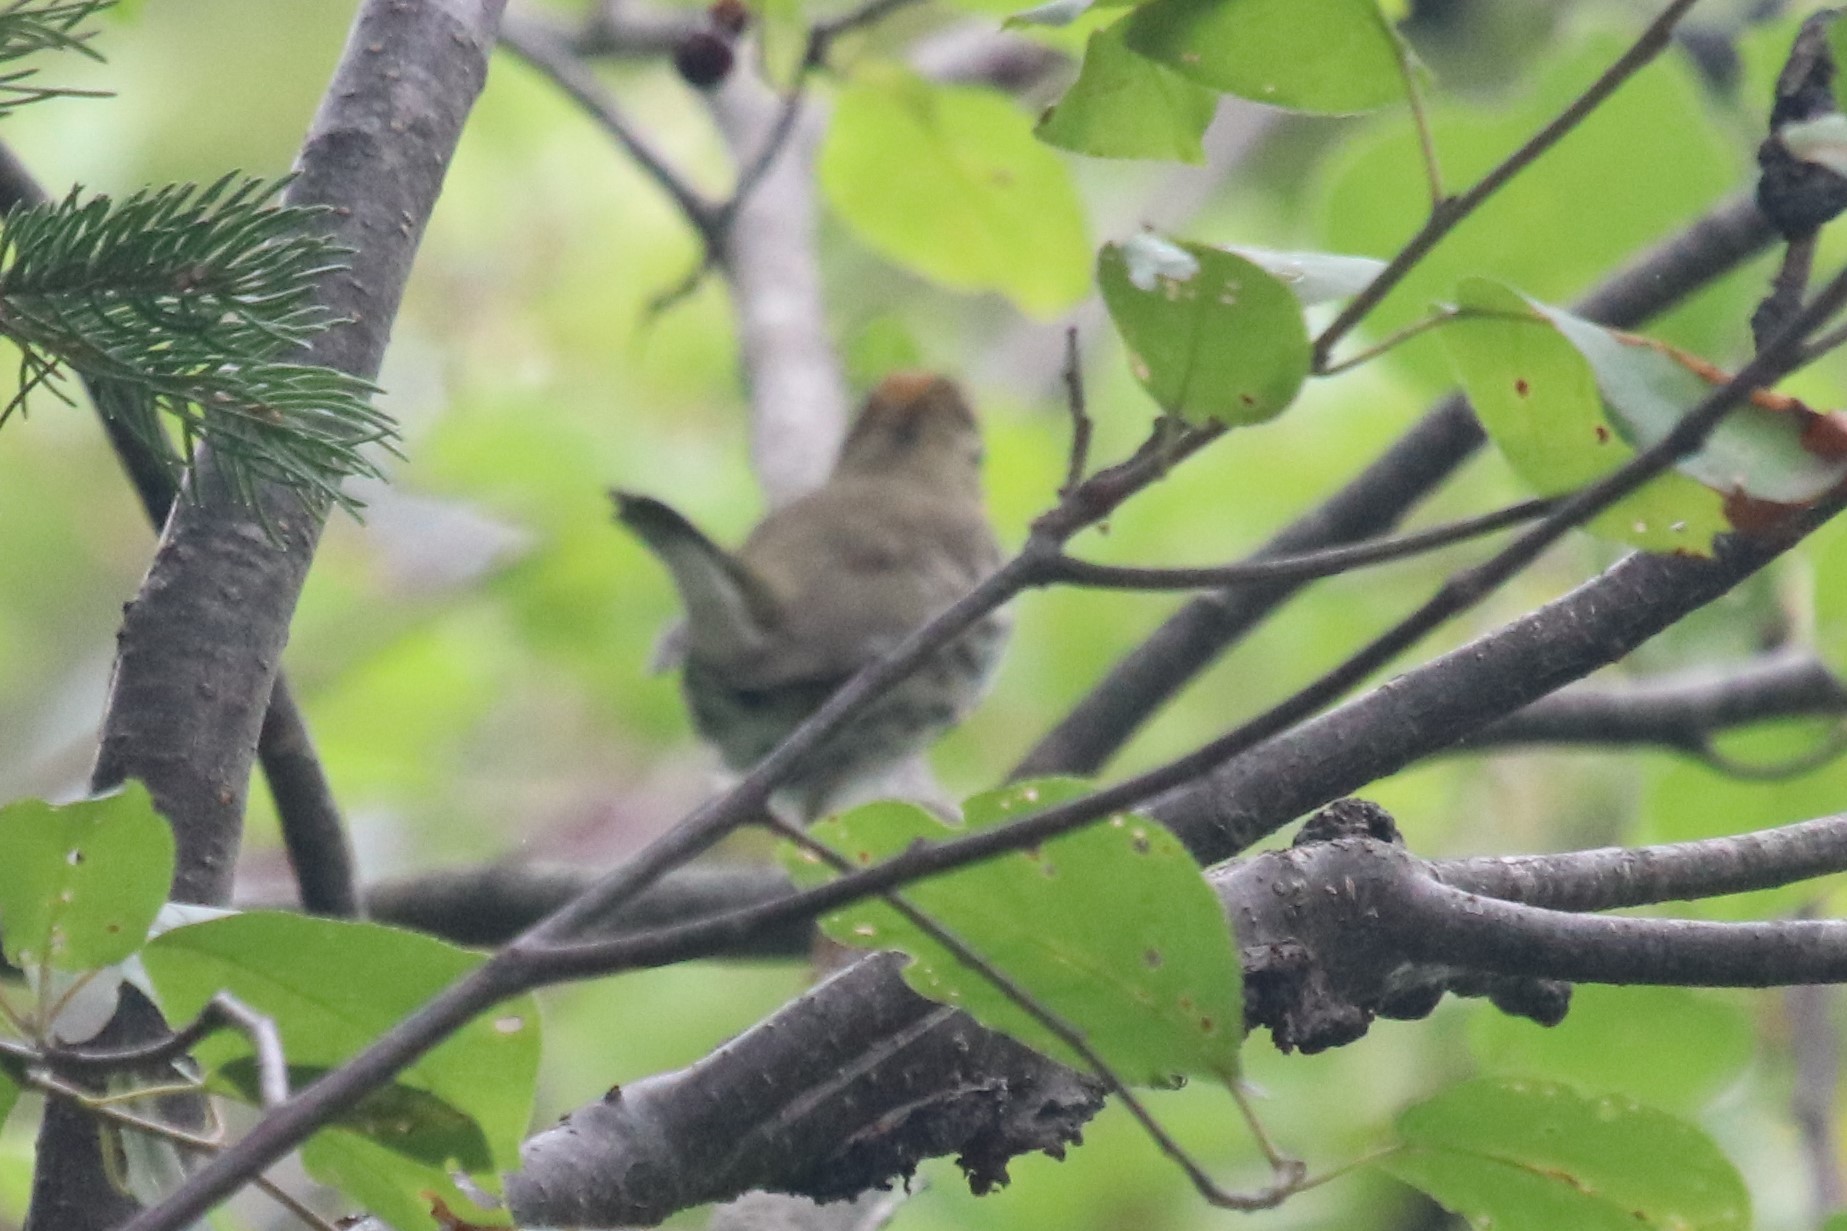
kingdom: Animalia
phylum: Chordata
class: Aves
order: Passeriformes
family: Parulidae
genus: Seiurus
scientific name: Seiurus aurocapilla
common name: Ovenbird
